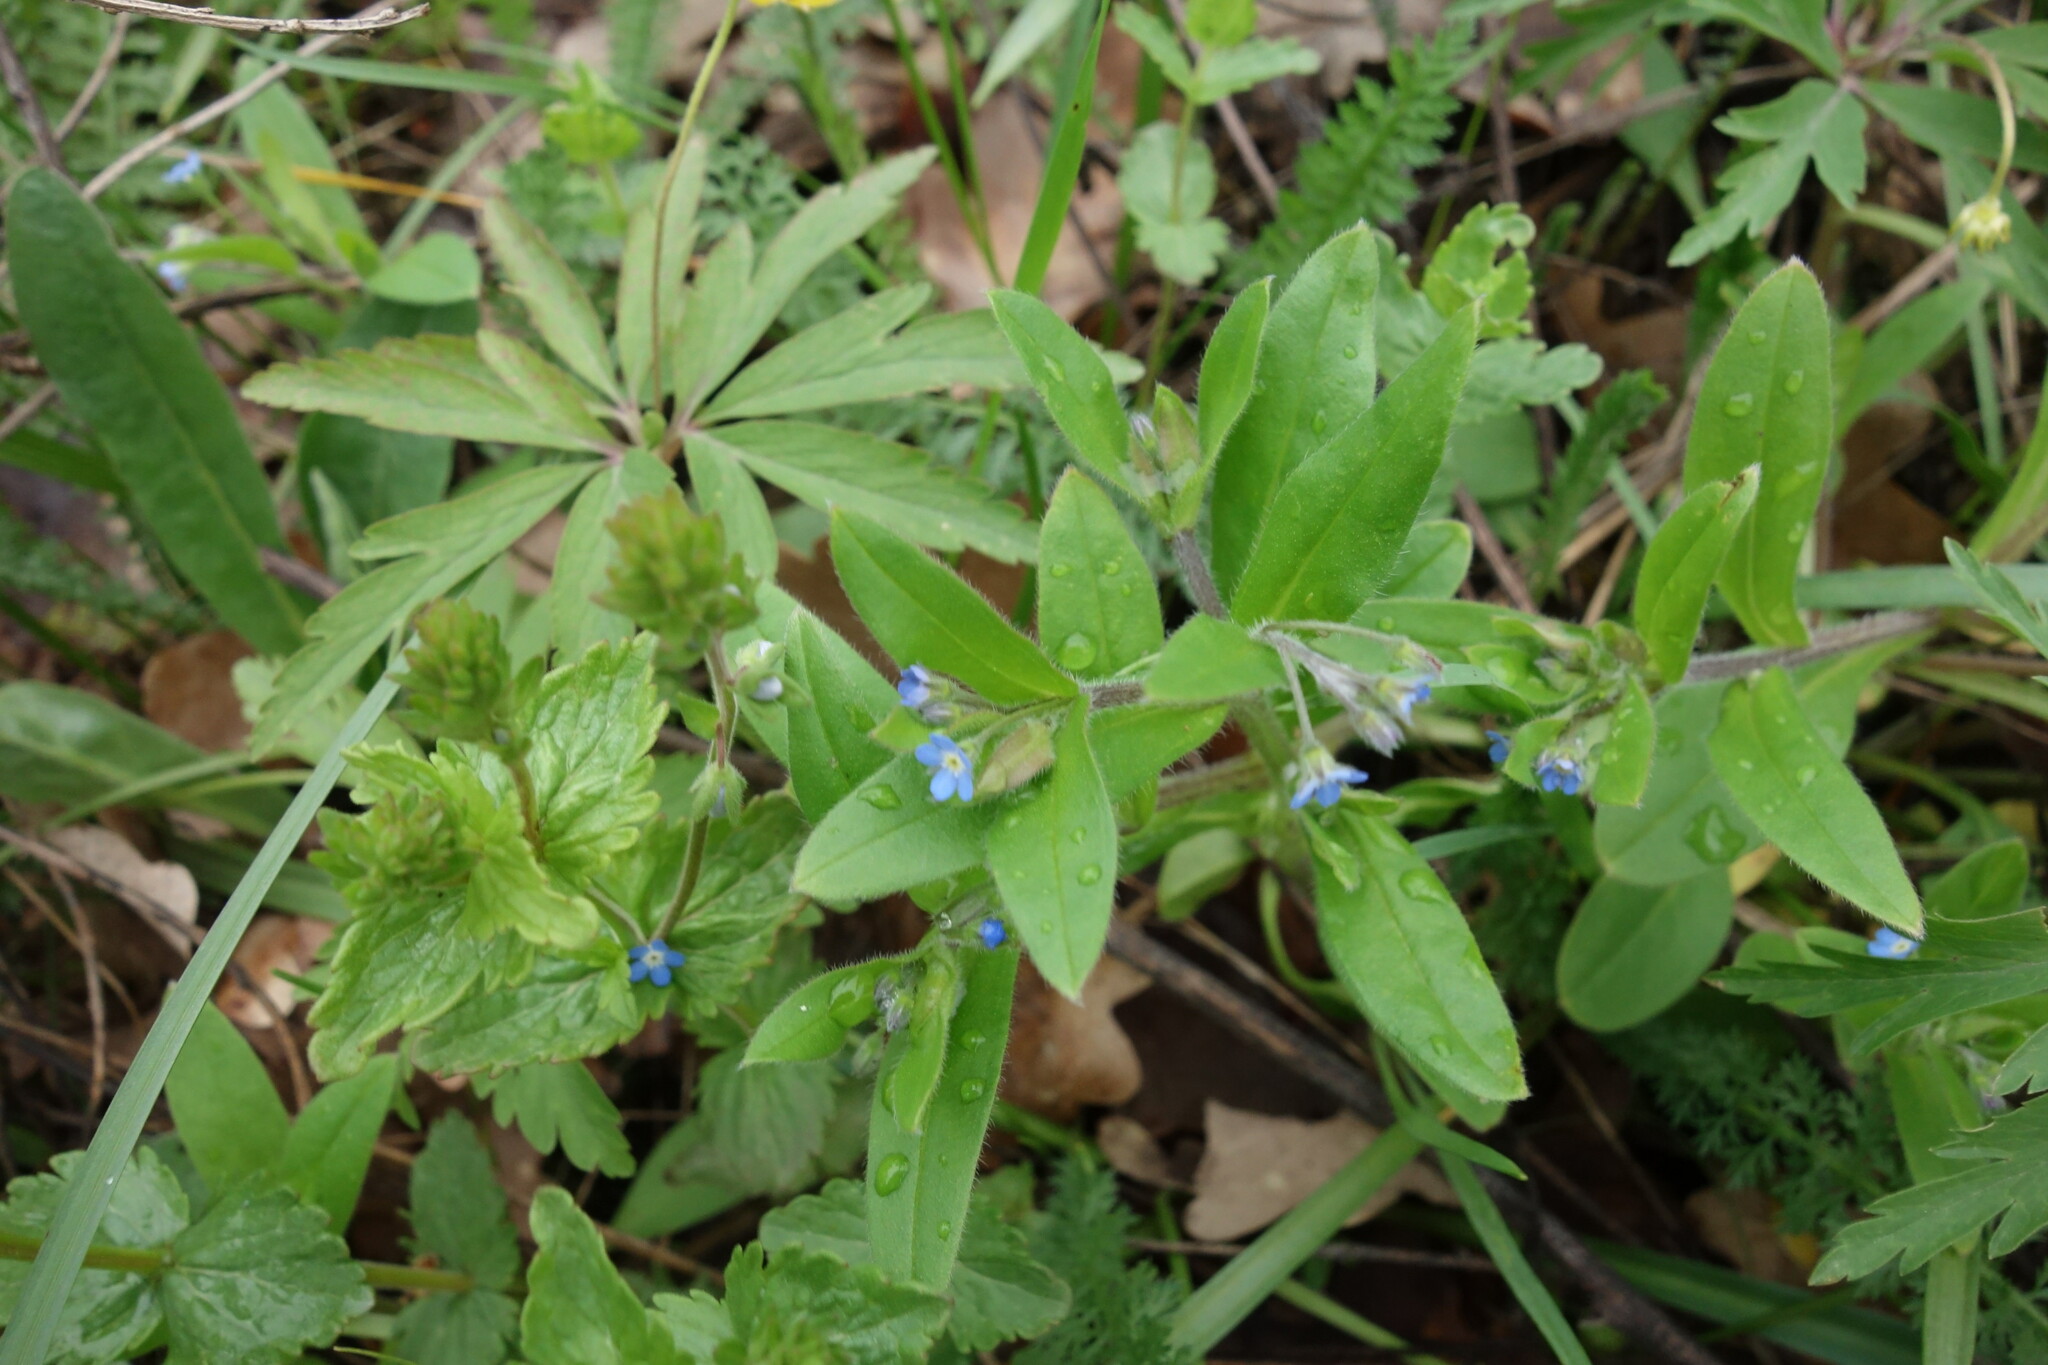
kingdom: Plantae
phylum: Tracheophyta
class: Magnoliopsida
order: Boraginales
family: Boraginaceae
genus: Myosotis
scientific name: Myosotis sparsiflora
